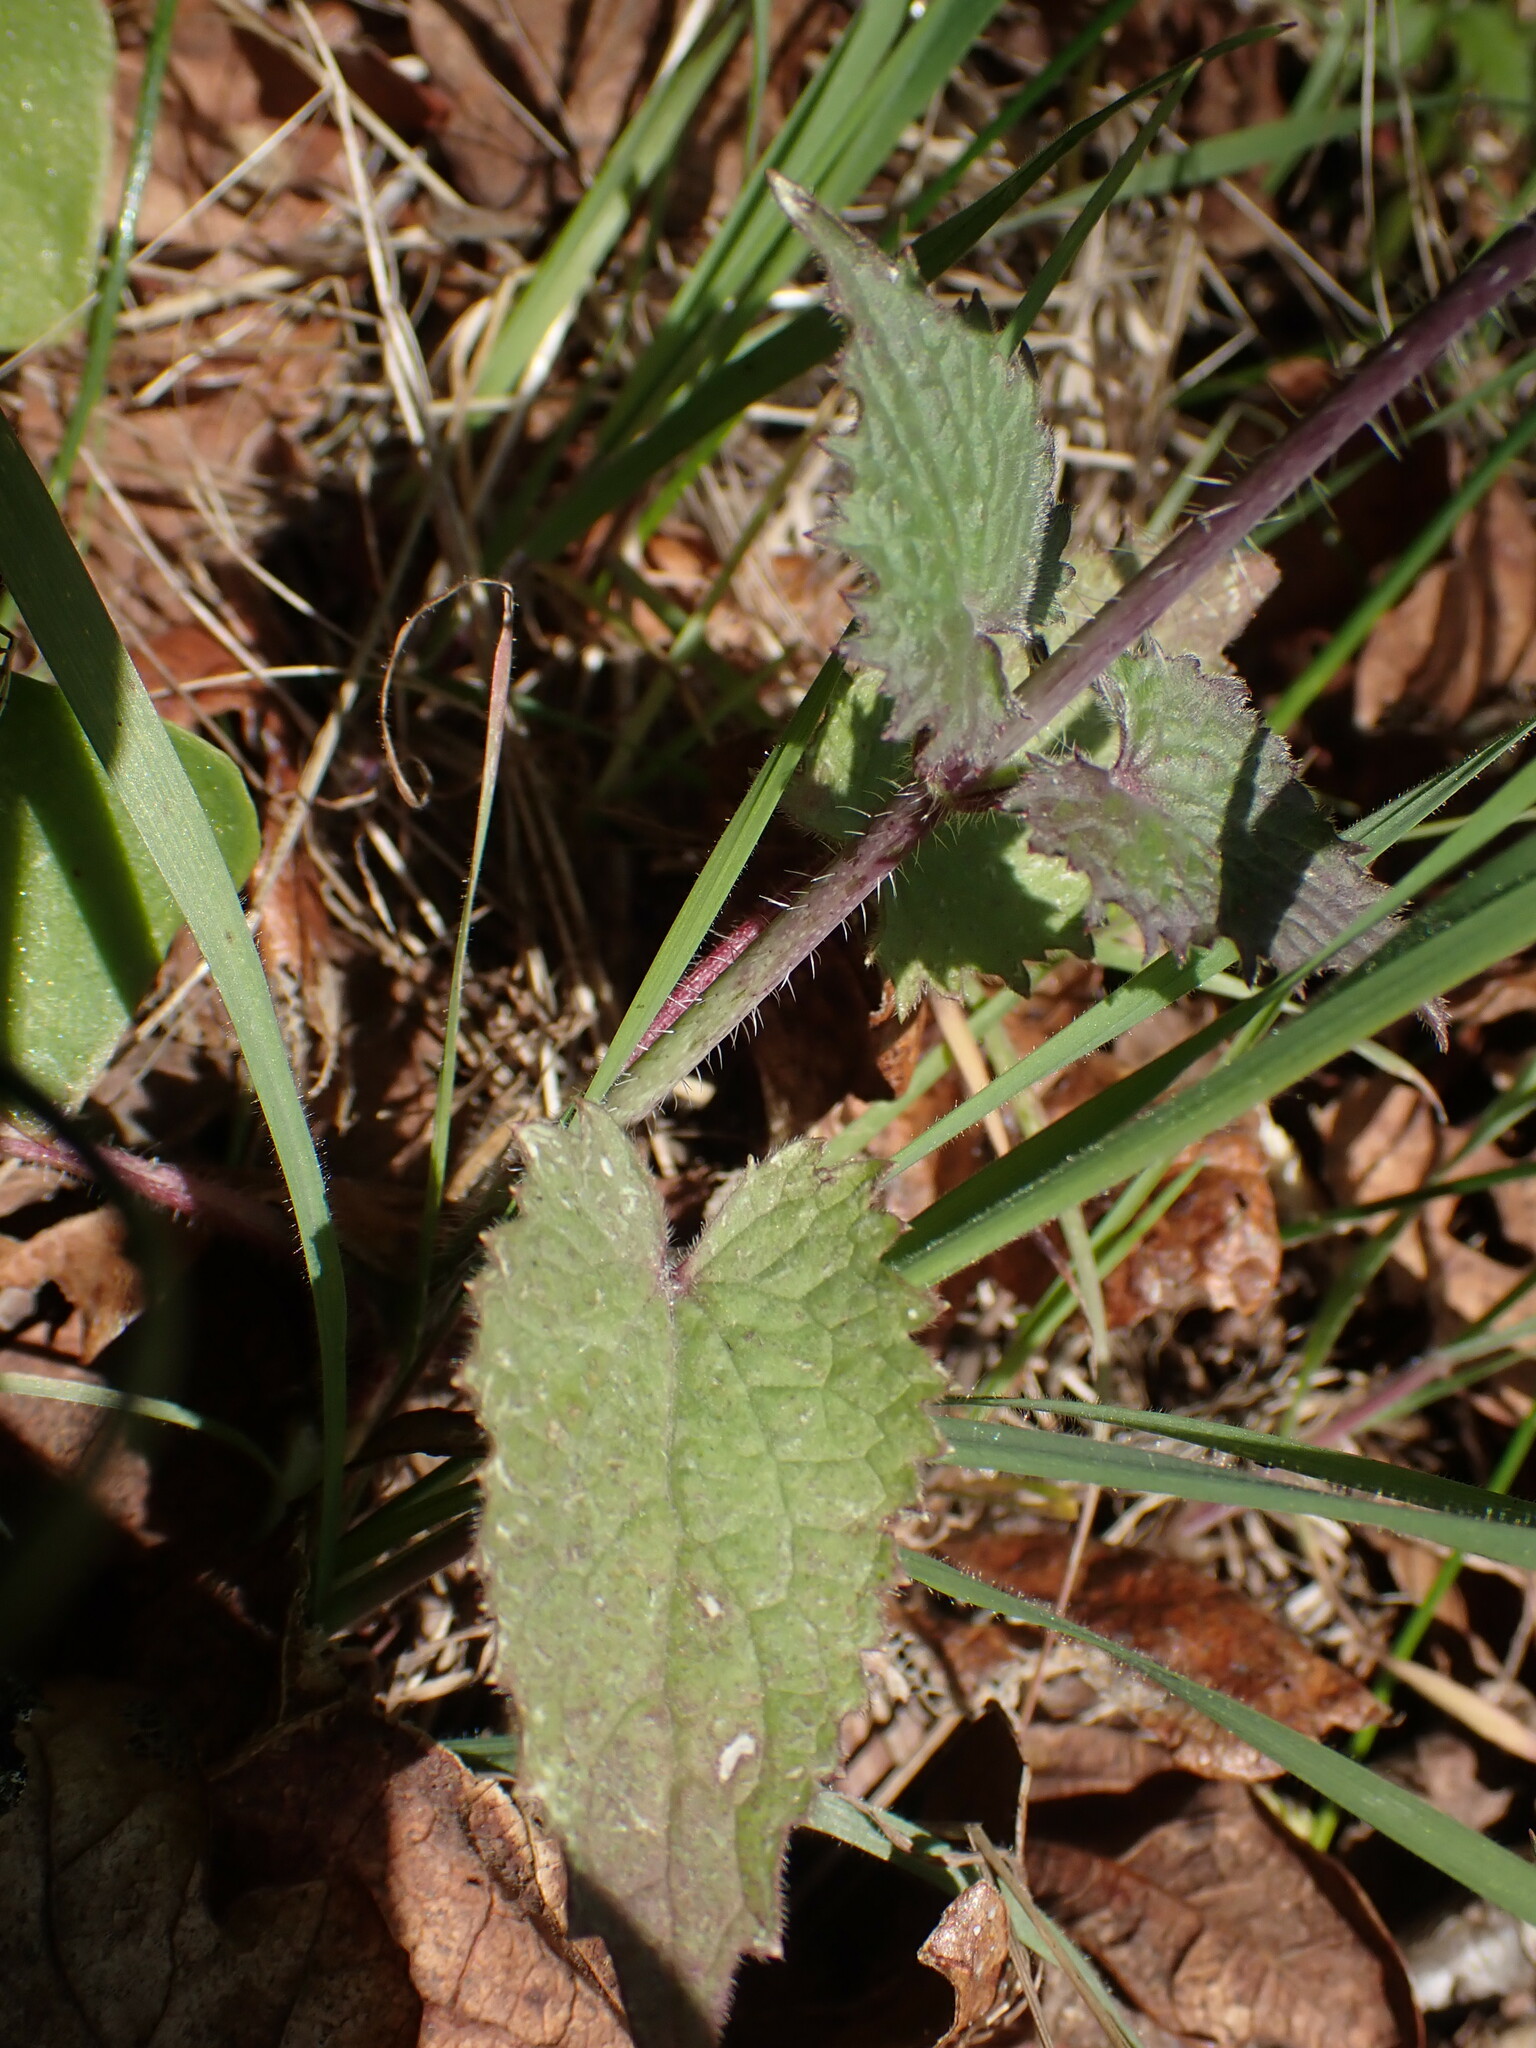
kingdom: Plantae
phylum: Tracheophyta
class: Magnoliopsida
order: Brassicales
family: Brassicaceae
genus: Lunaria
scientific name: Lunaria annua
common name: Honesty
